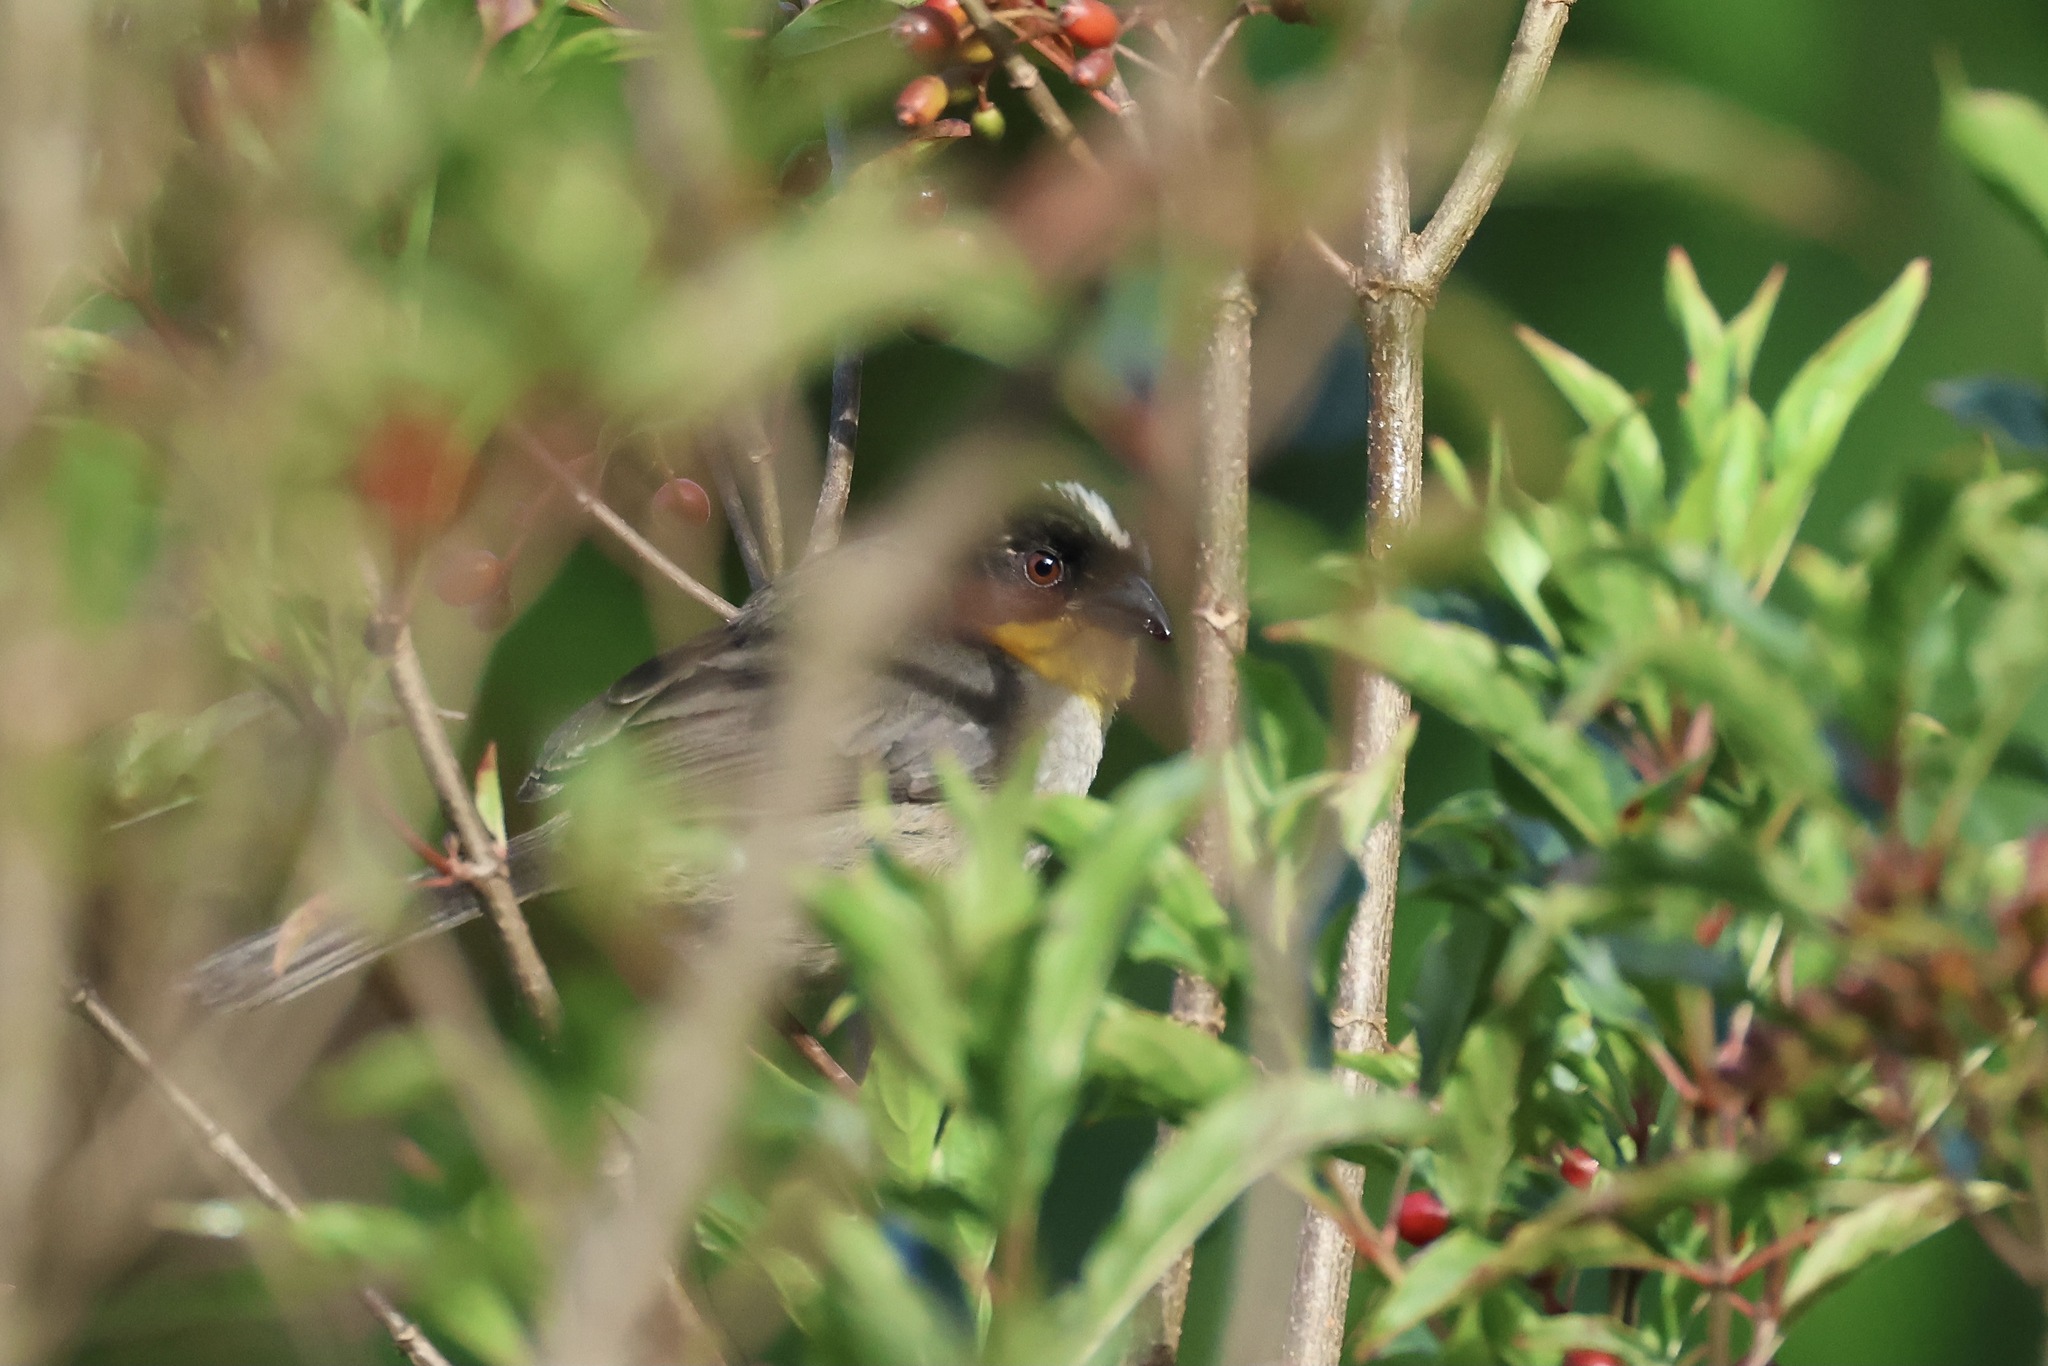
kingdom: Animalia
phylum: Chordata
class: Aves
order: Passeriformes
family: Passerellidae
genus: Atlapetes
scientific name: Atlapetes albinucha
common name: White-naped brush-finch
